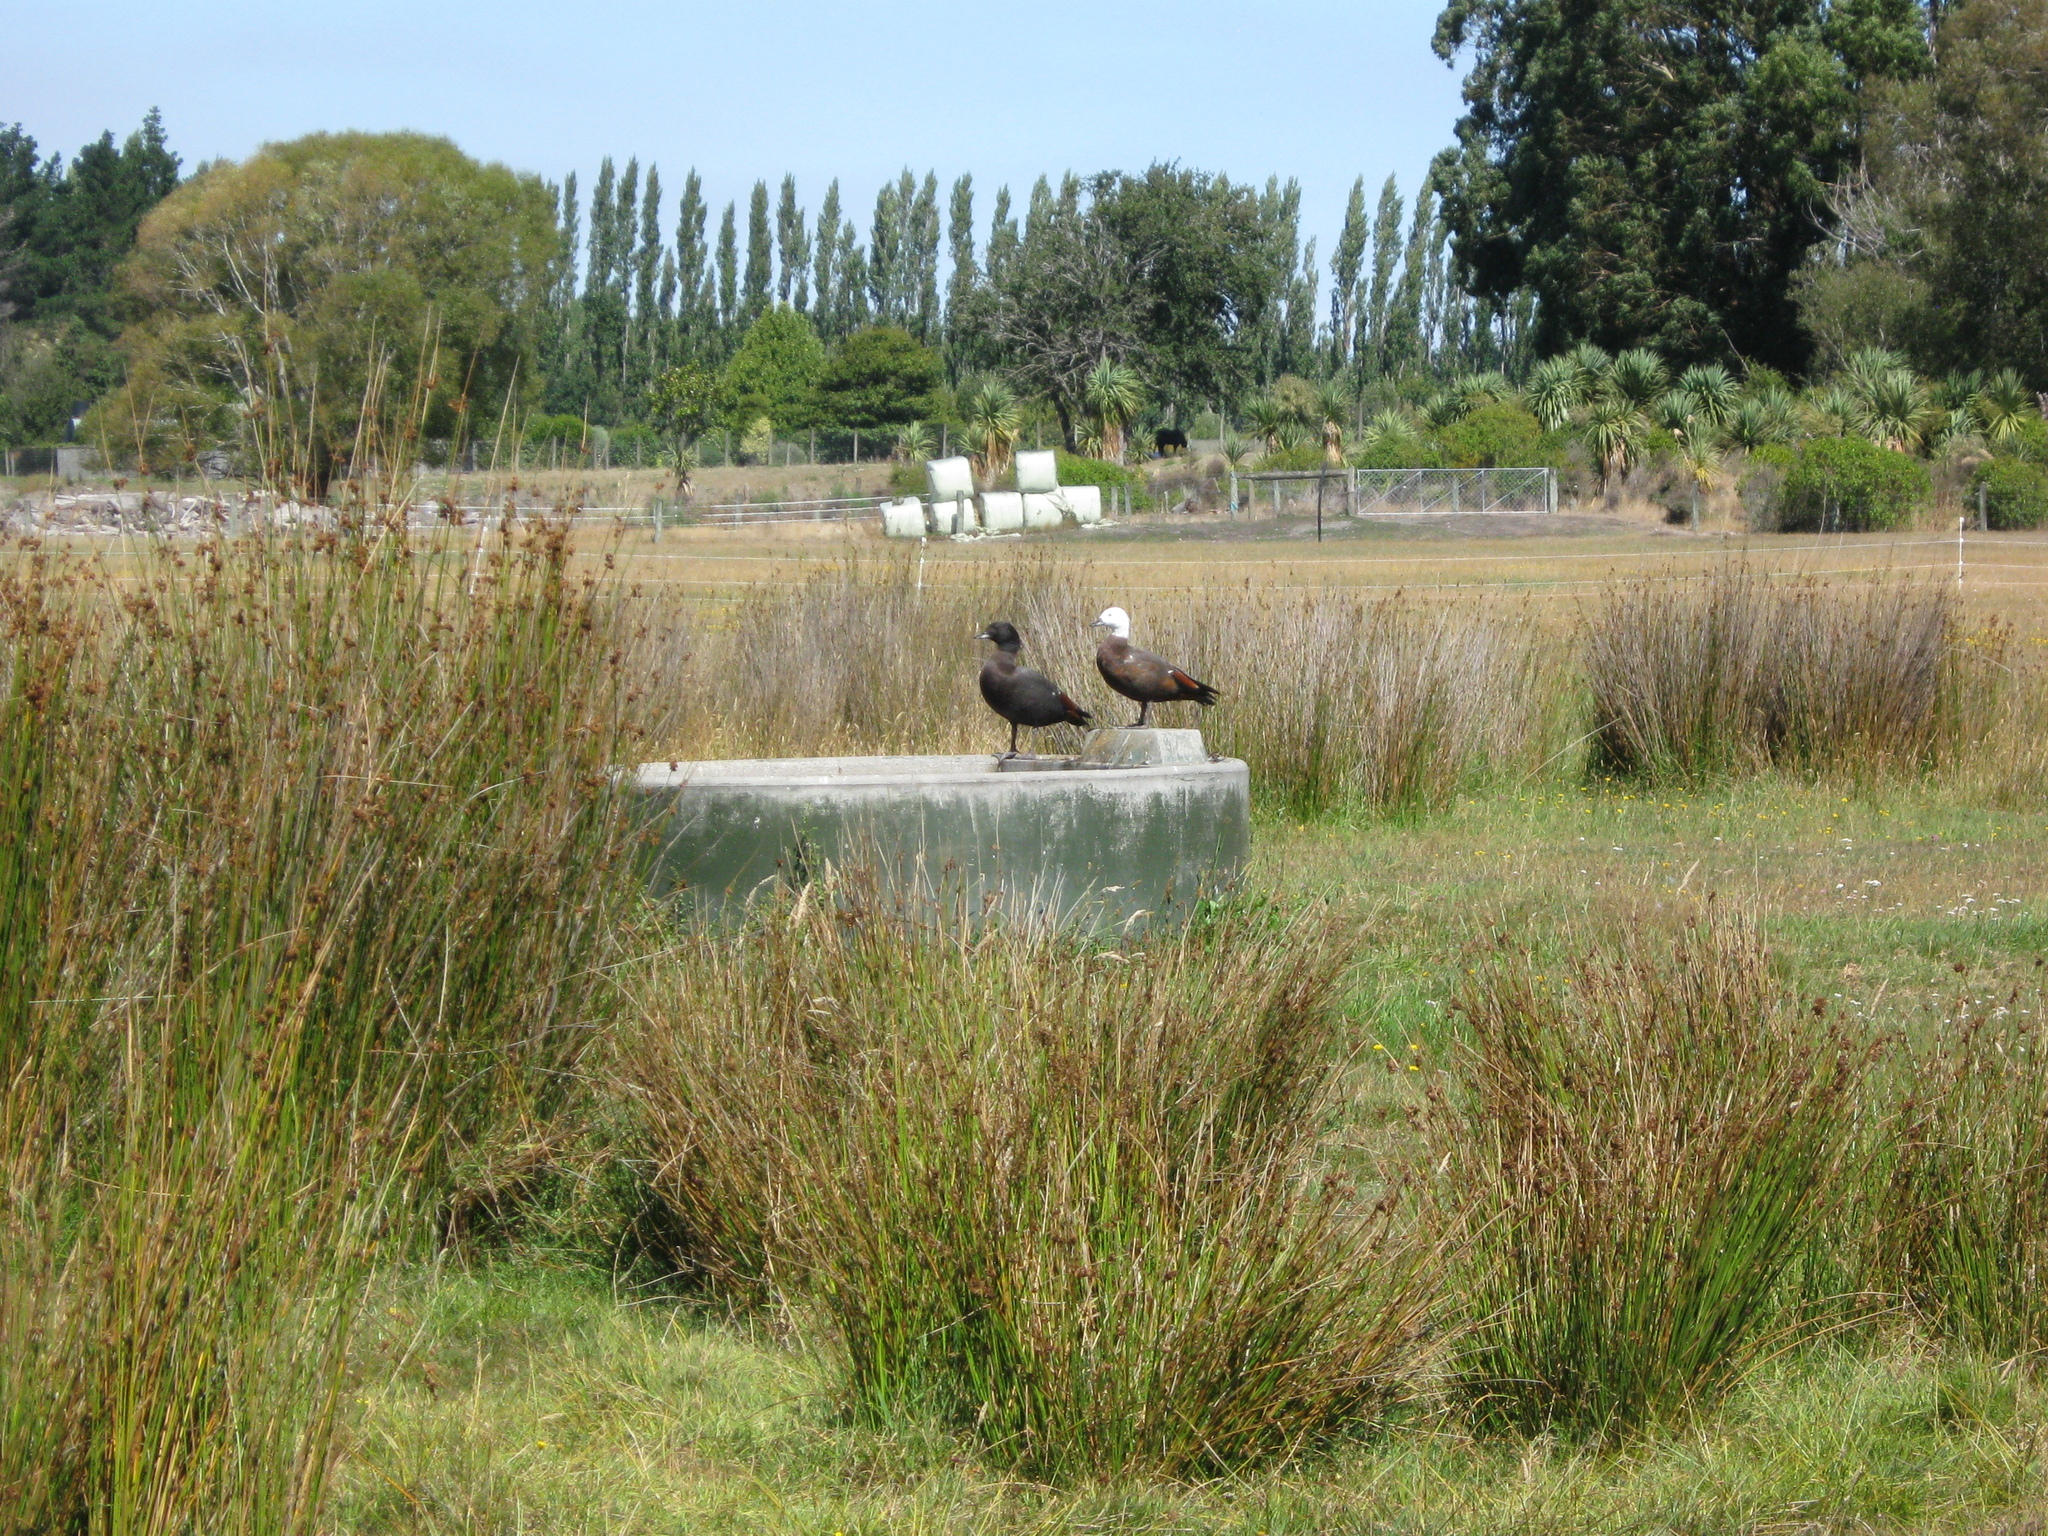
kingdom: Animalia
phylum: Chordata
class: Aves
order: Anseriformes
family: Anatidae
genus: Tadorna
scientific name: Tadorna variegata
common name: Paradise shelduck
